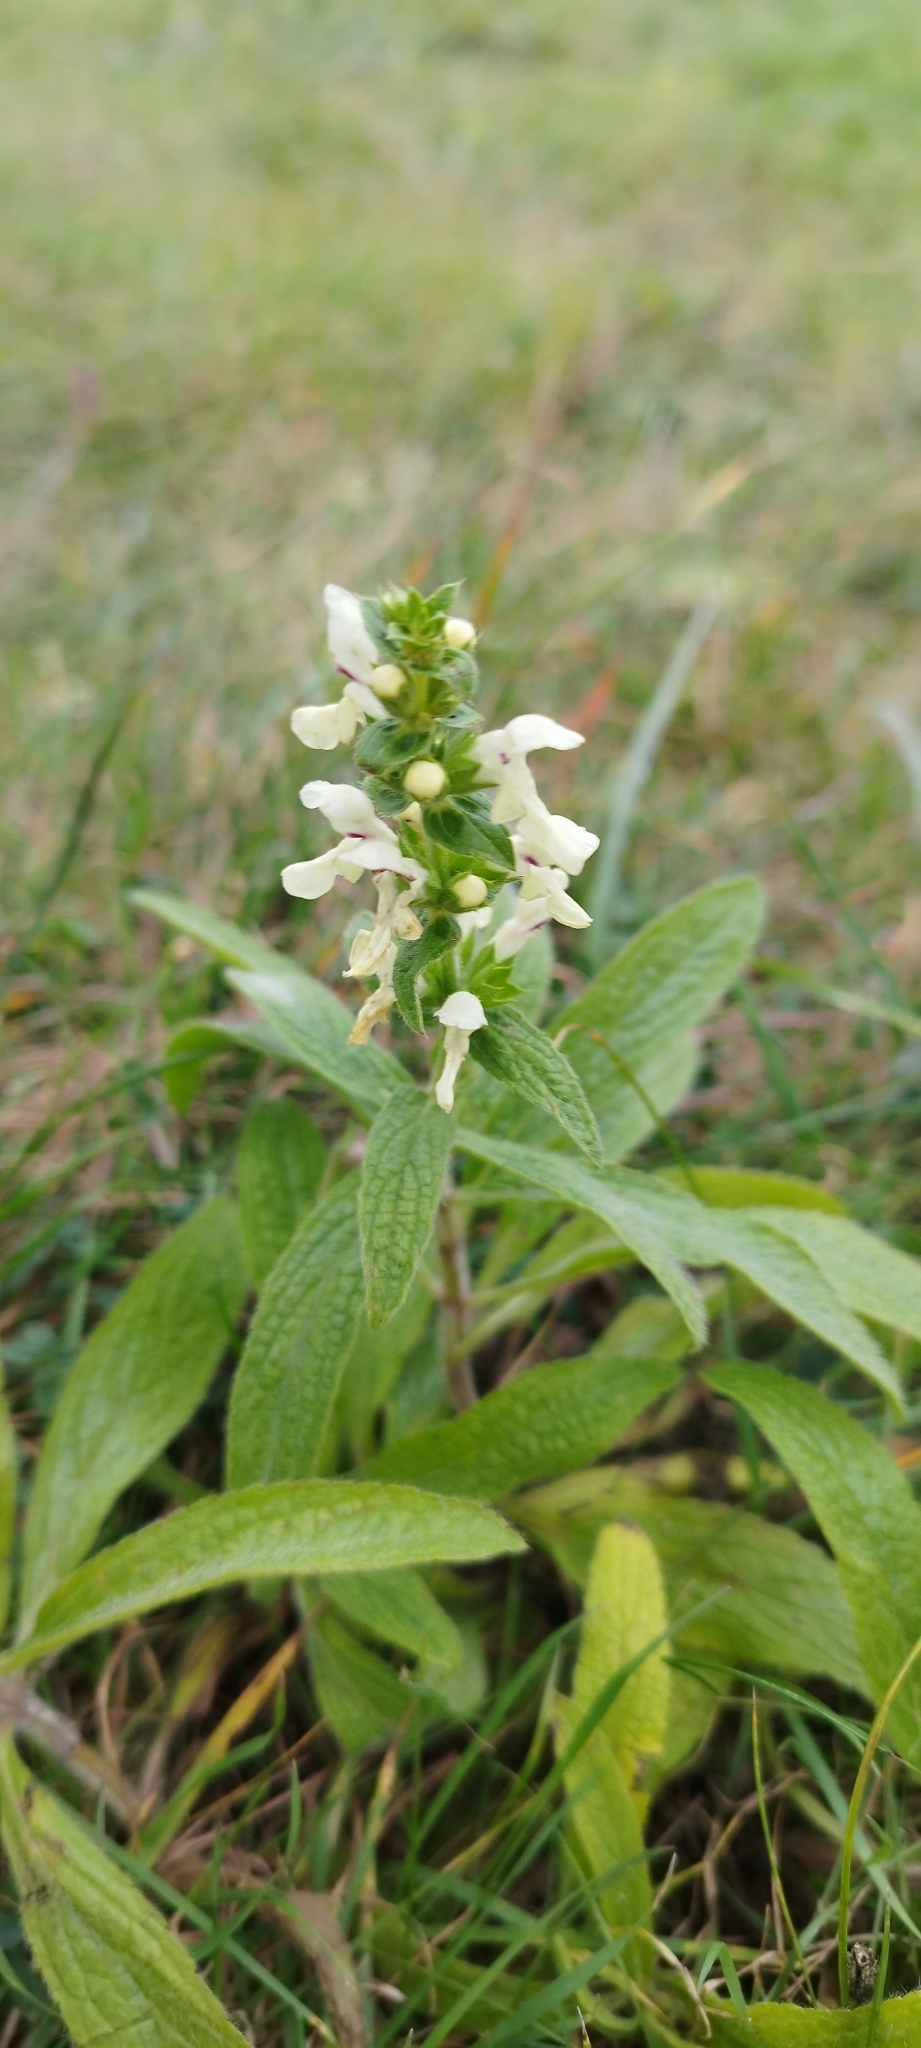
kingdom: Plantae
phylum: Tracheophyta
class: Magnoliopsida
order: Lamiales
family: Lamiaceae
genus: Stachys
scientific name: Stachys recta
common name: Perennial yellow-woundwort
